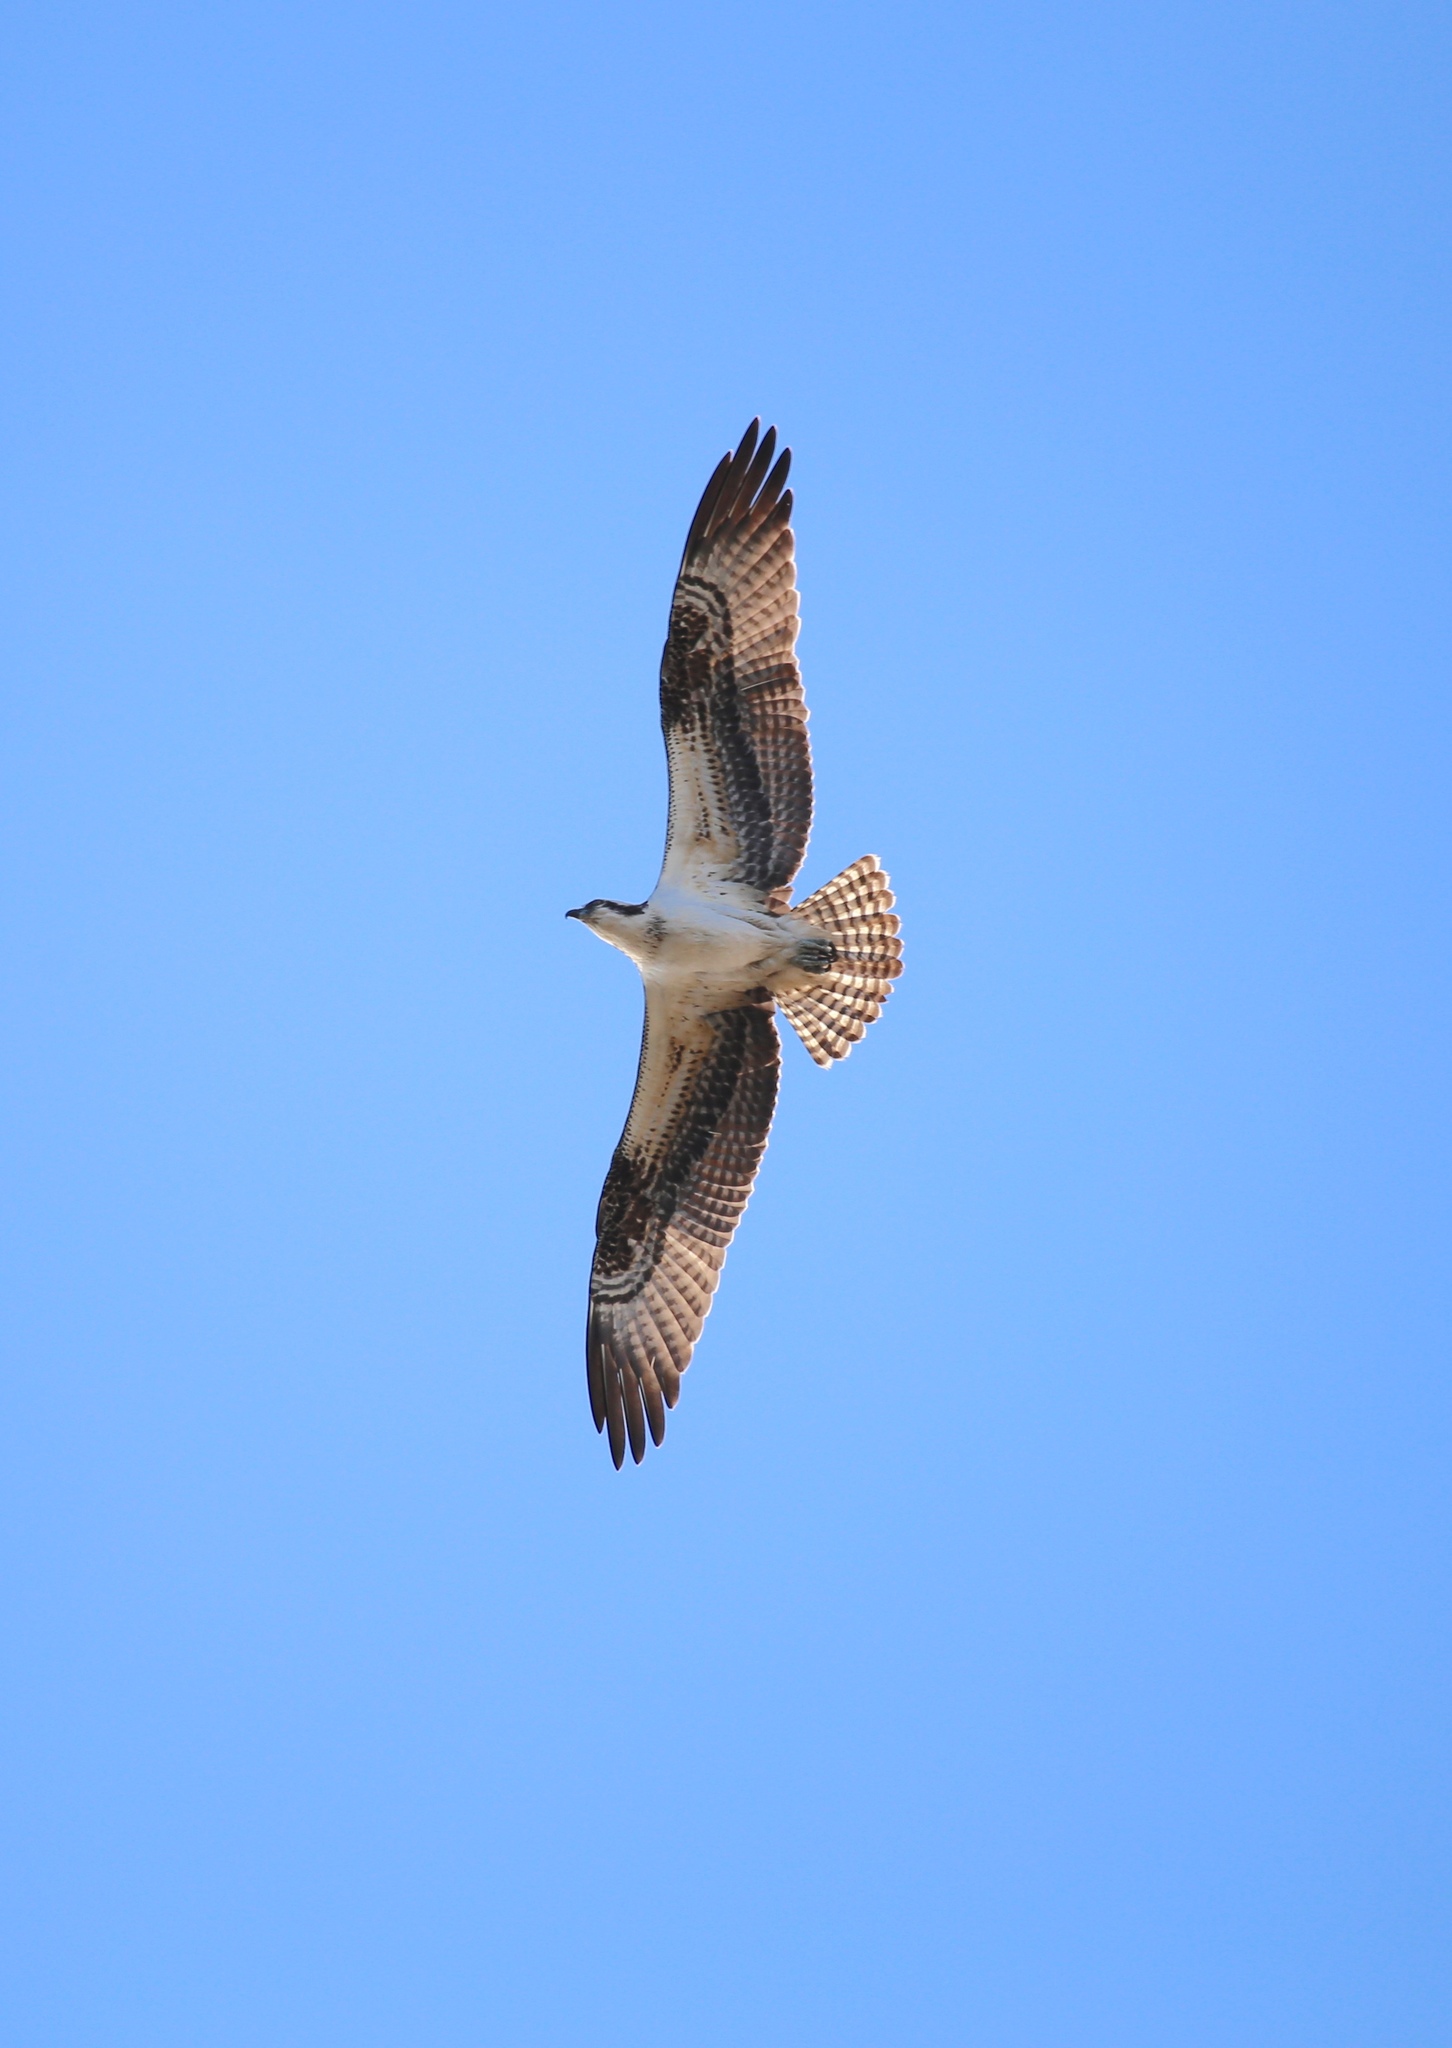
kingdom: Animalia
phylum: Chordata
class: Aves
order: Accipitriformes
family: Pandionidae
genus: Pandion
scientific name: Pandion haliaetus
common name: Osprey
